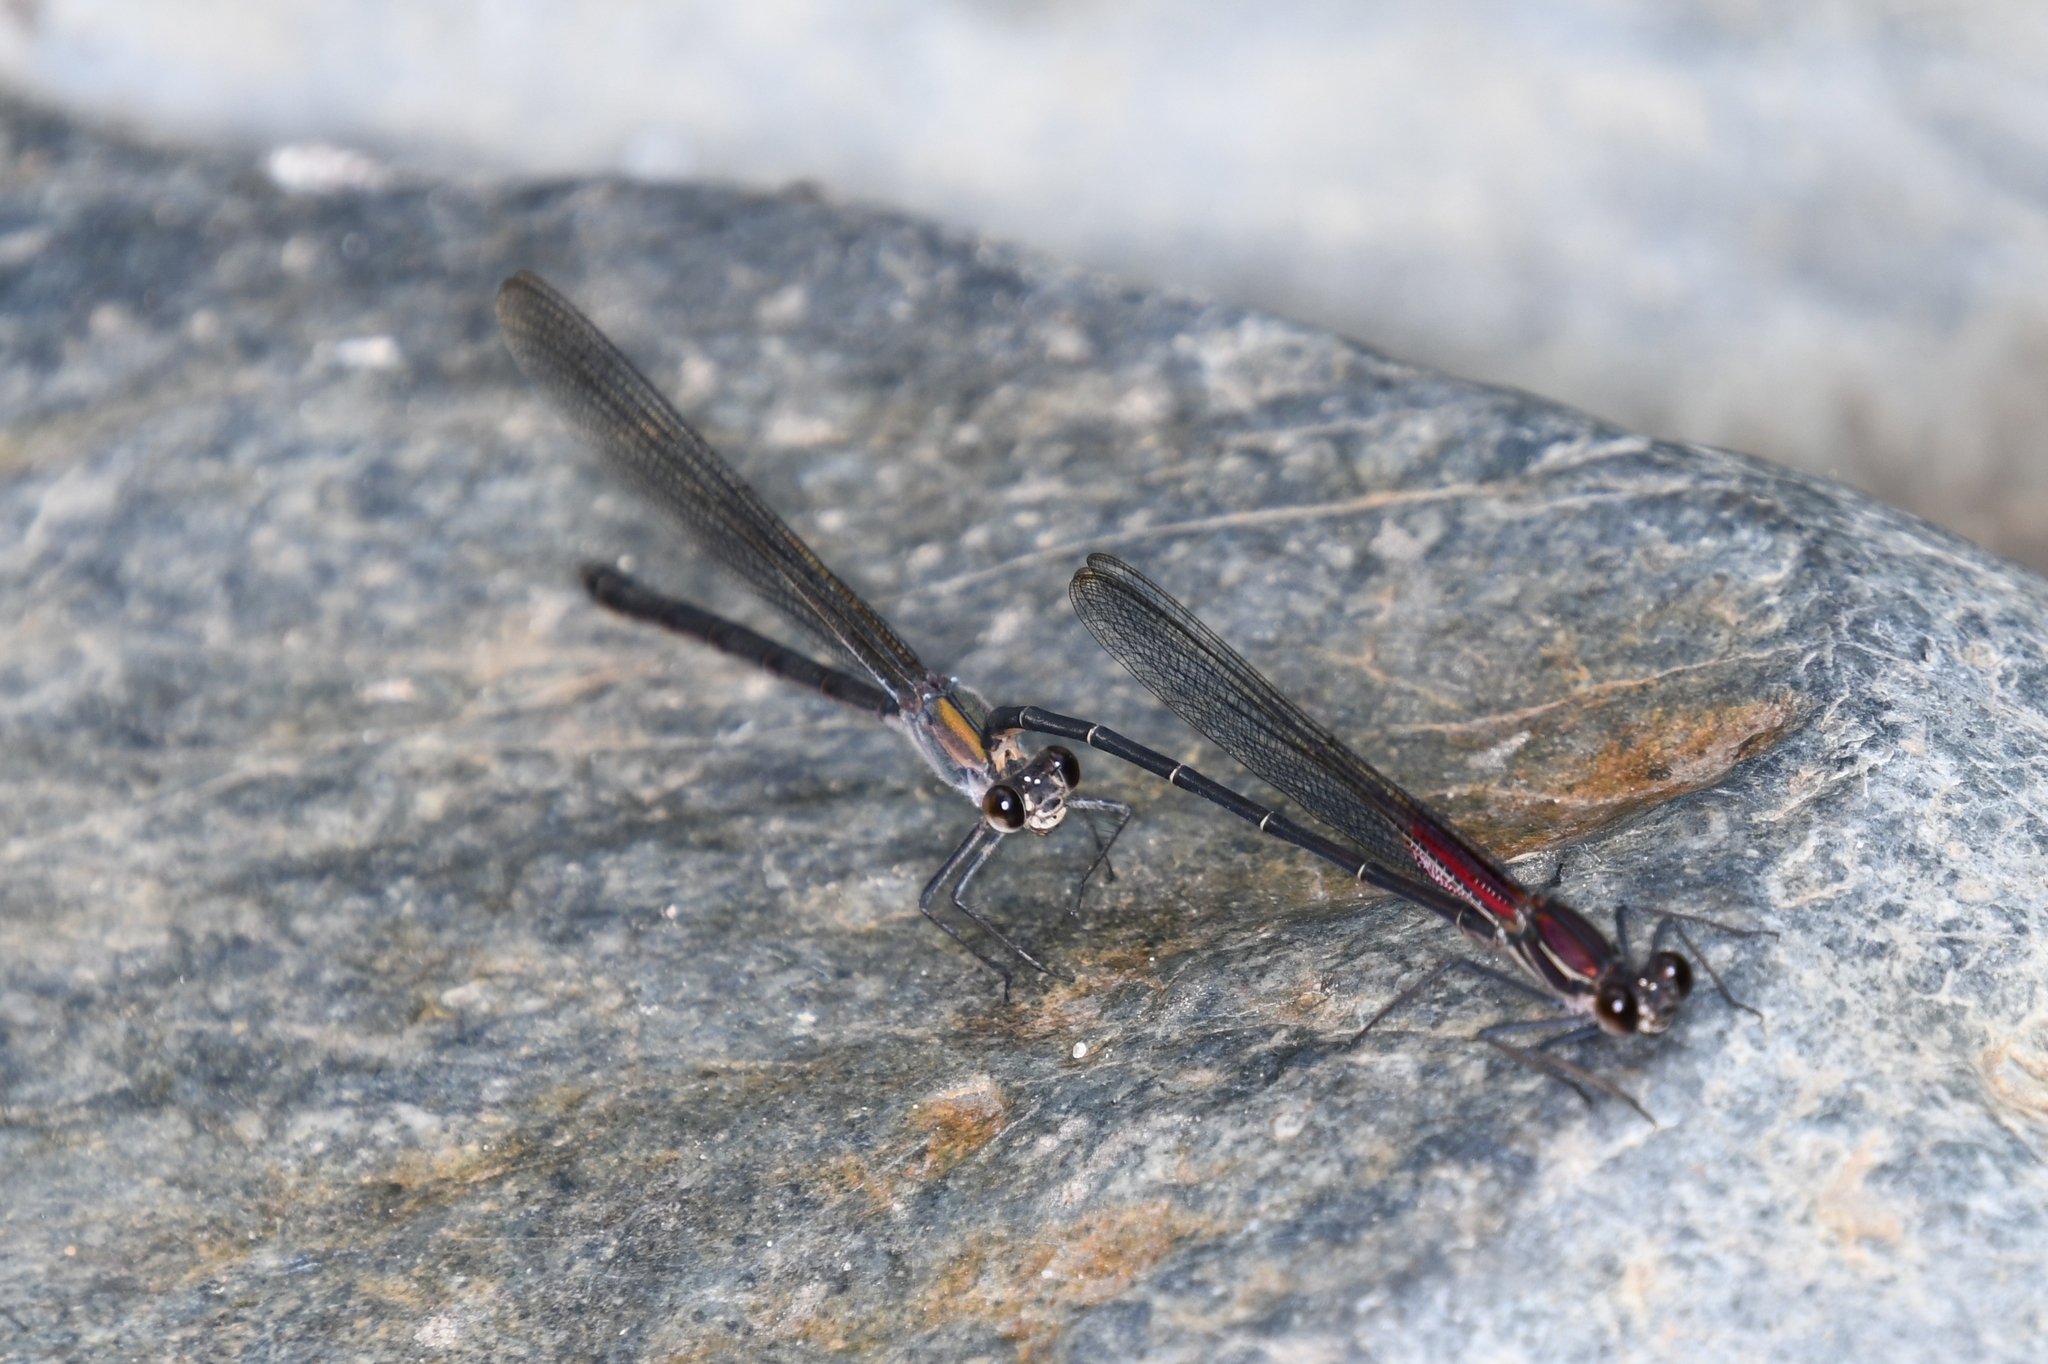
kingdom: Animalia
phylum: Arthropoda
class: Insecta
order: Odonata
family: Calopterygidae
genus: Hetaerina
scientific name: Hetaerina vulnerata
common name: Canyon rubyspot
